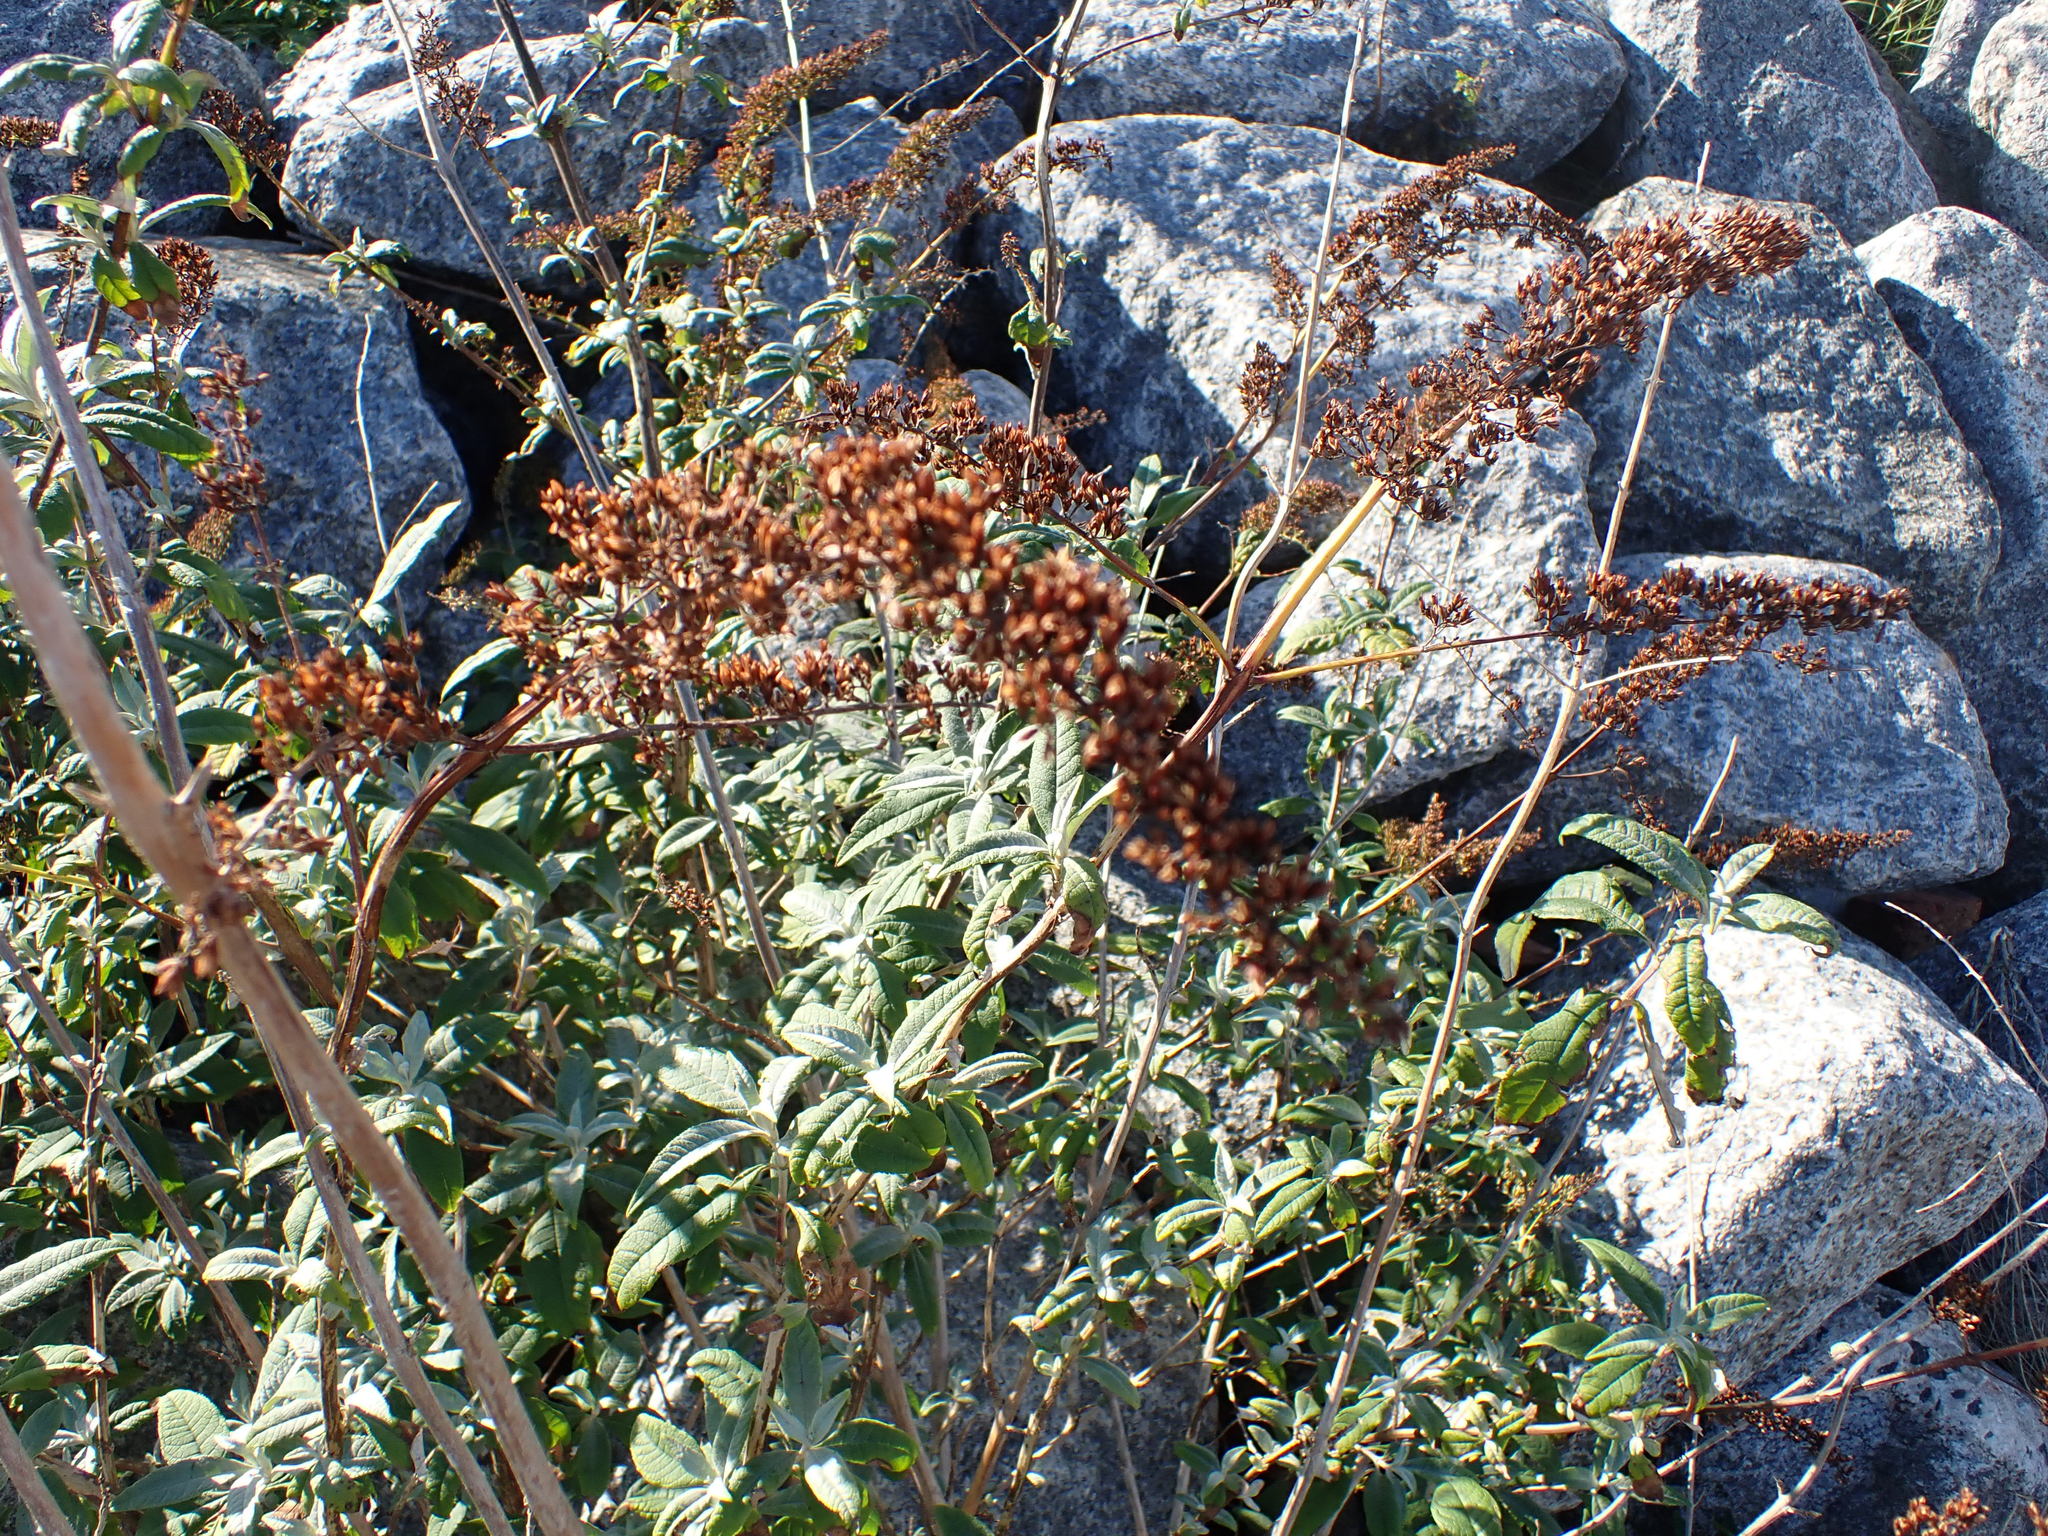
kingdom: Plantae
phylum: Tracheophyta
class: Magnoliopsida
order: Lamiales
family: Scrophulariaceae
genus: Buddleja
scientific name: Buddleja davidii
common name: Butterfly-bush
